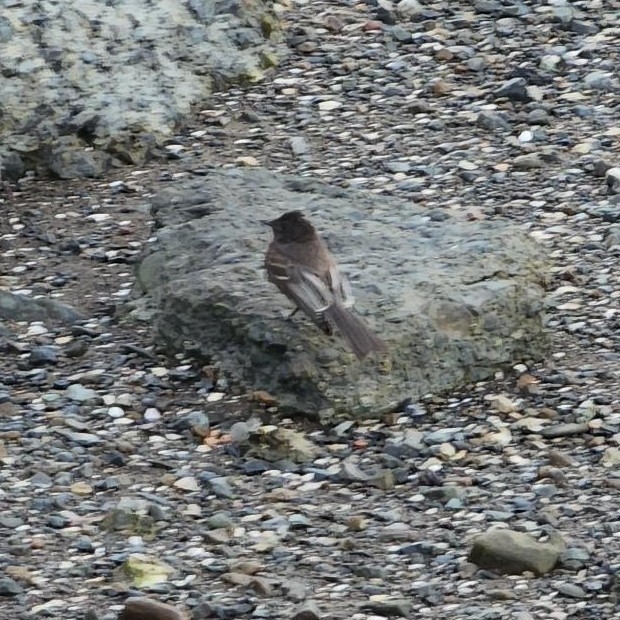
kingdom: Animalia
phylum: Chordata
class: Aves
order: Passeriformes
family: Tyrannidae
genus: Sayornis
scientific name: Sayornis nigricans
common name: Black phoebe
